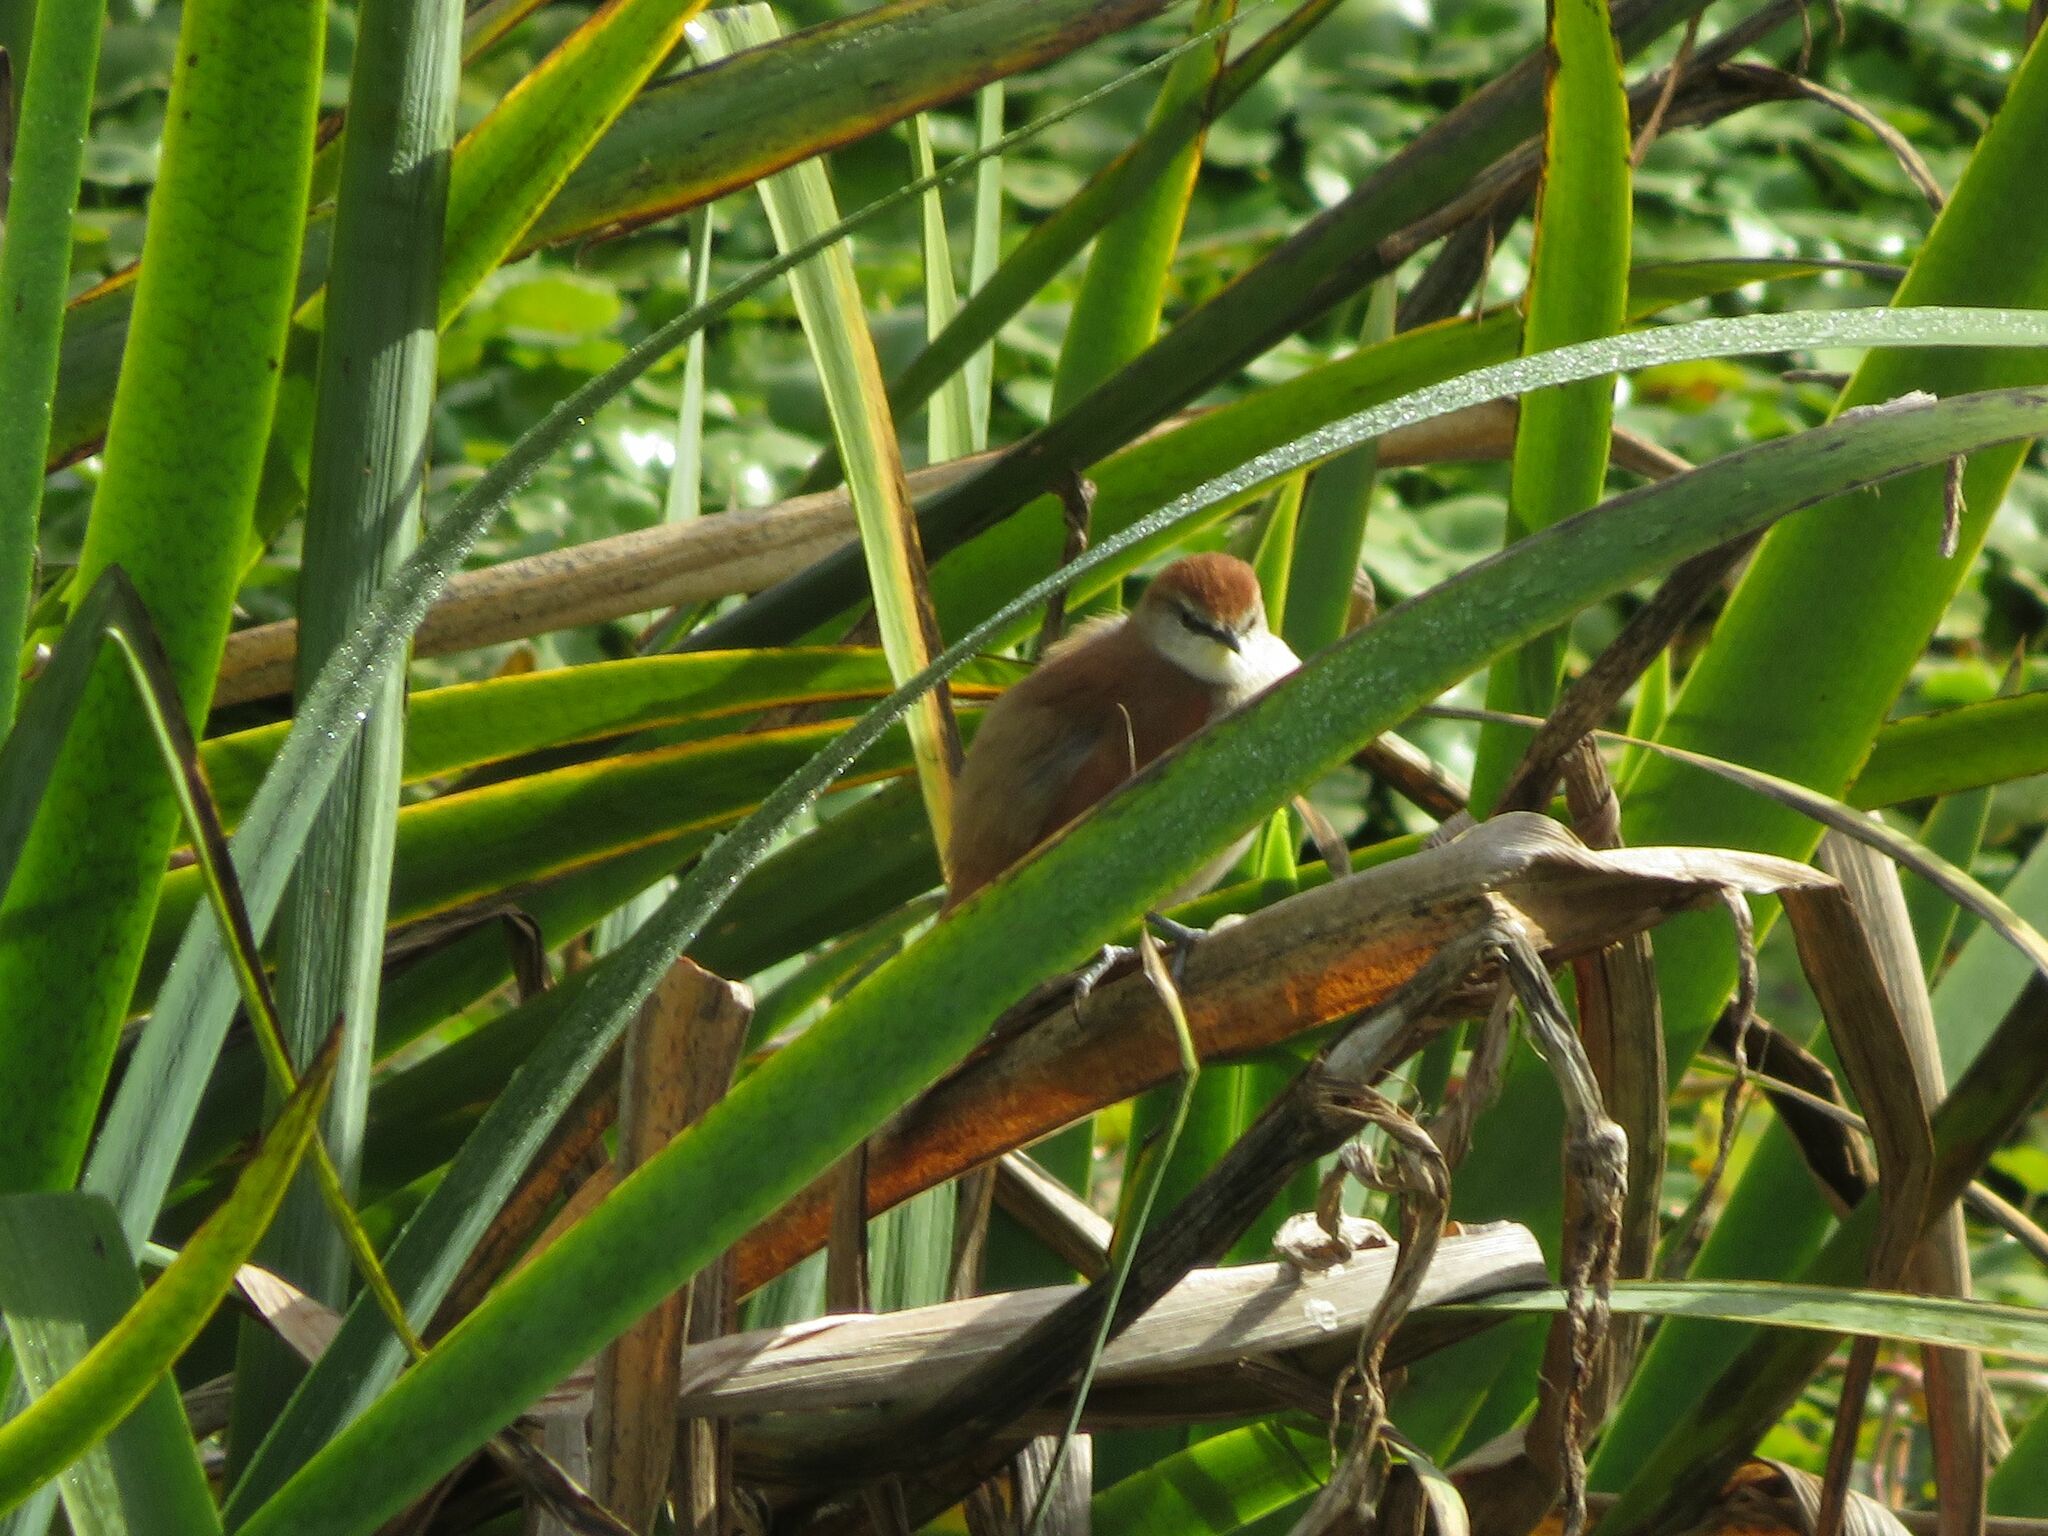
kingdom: Animalia
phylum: Chordata
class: Aves
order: Passeriformes
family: Furnariidae
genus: Certhiaxis
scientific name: Certhiaxis cinnamomeus
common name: Yellow-chinned spinetail
